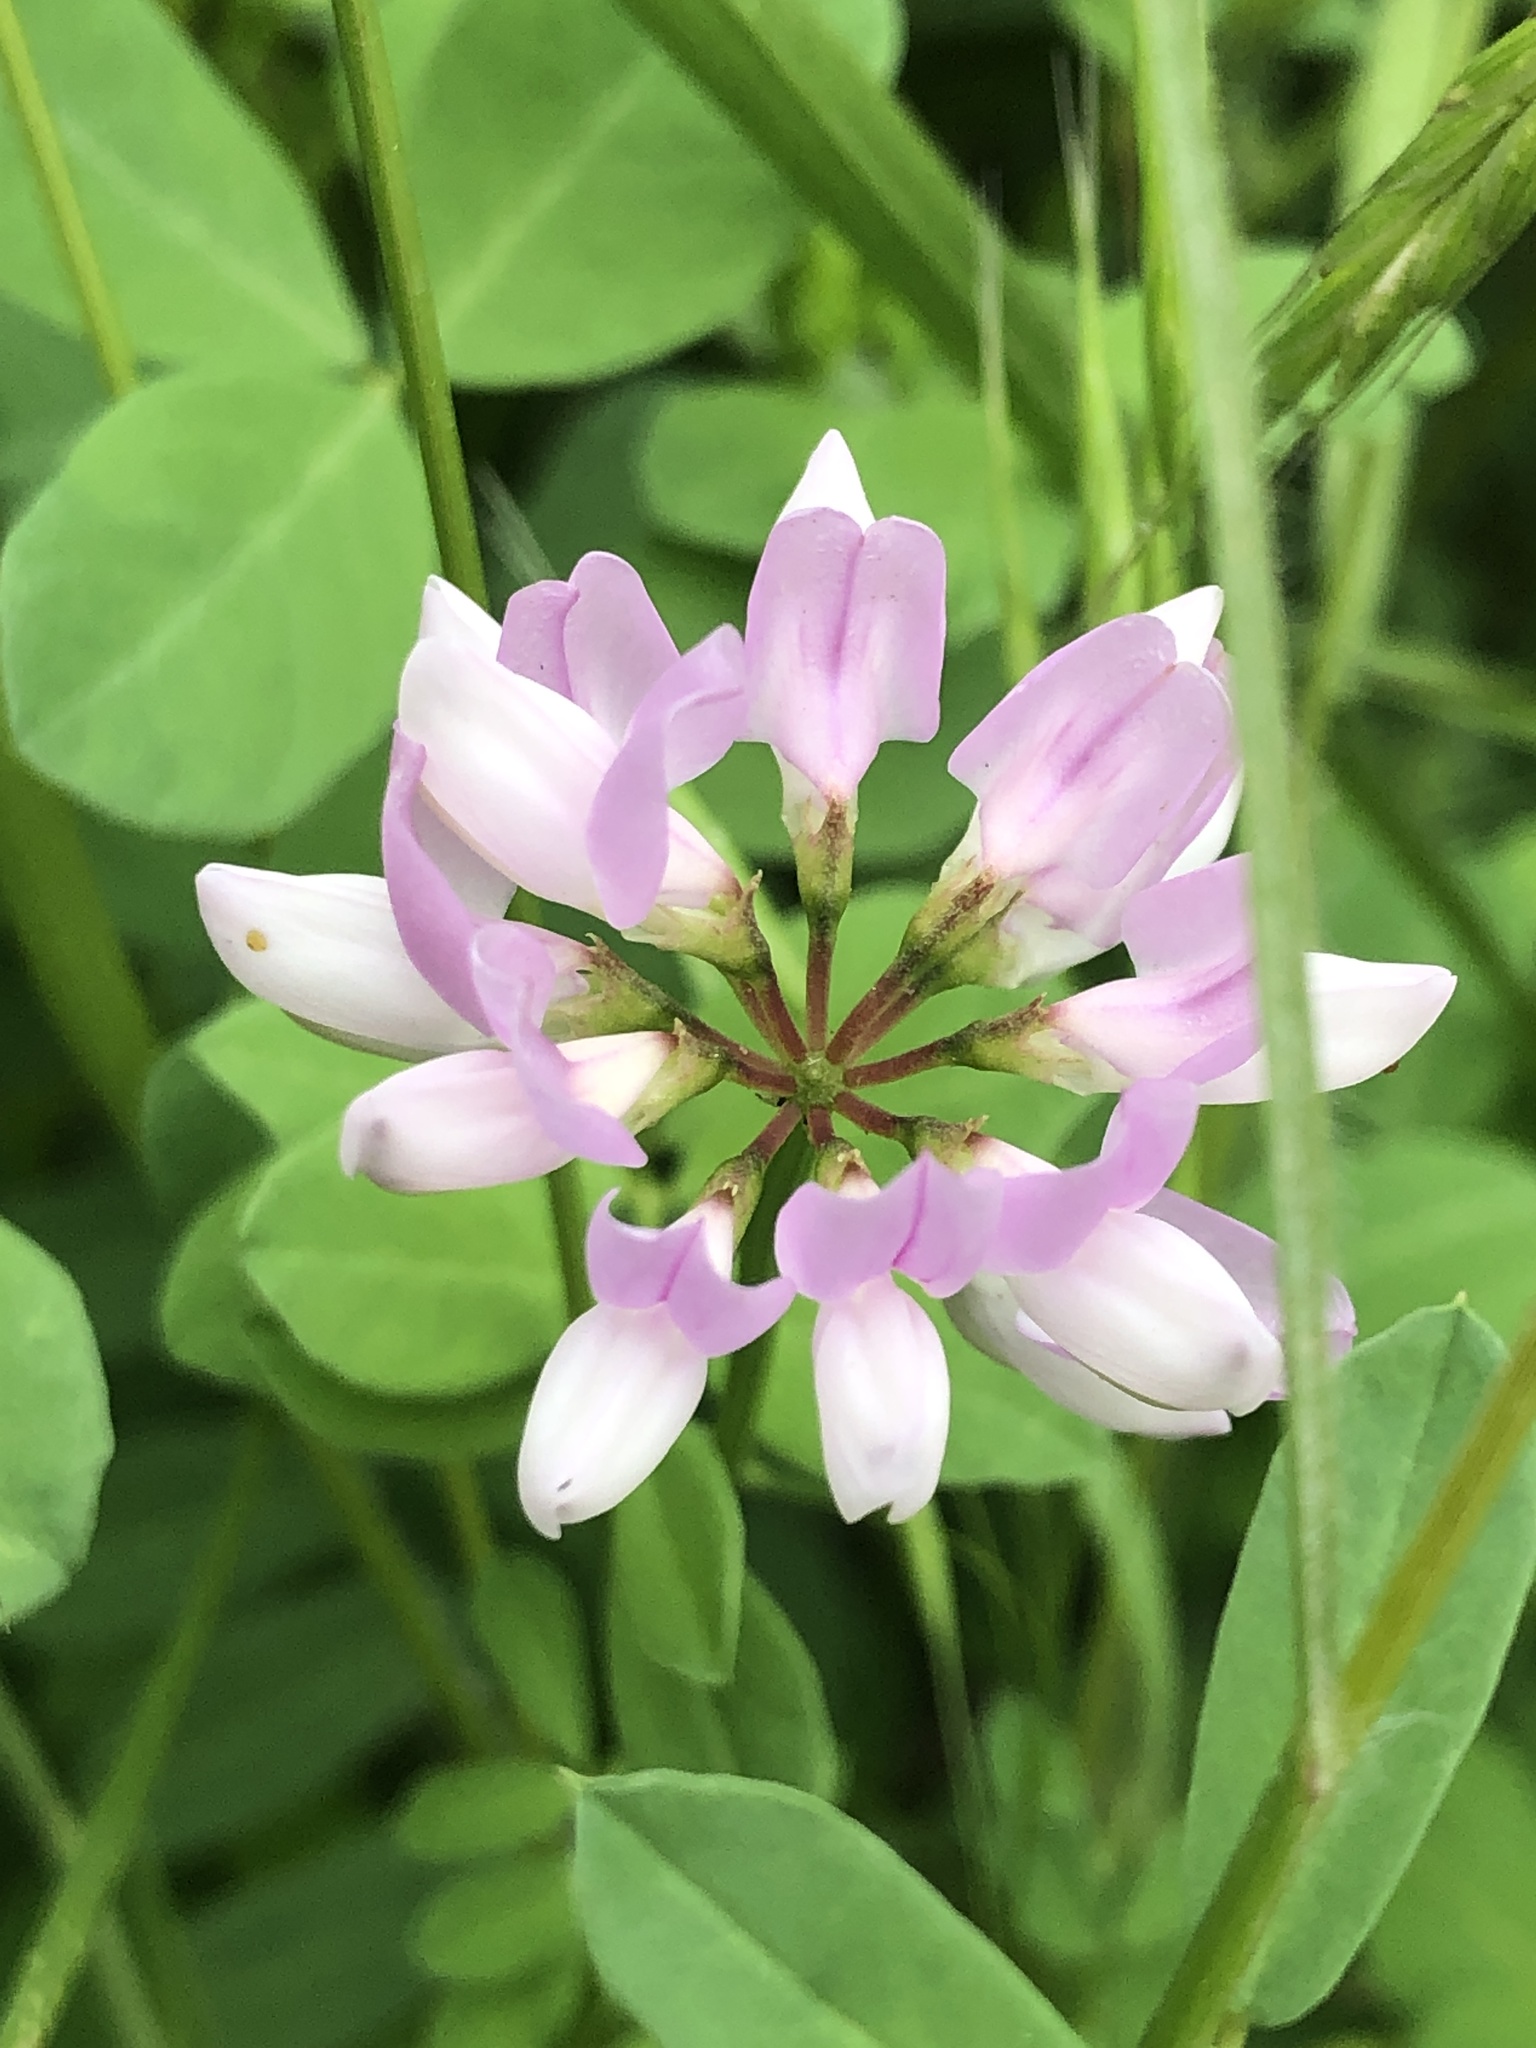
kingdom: Plantae
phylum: Tracheophyta
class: Magnoliopsida
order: Fabales
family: Fabaceae
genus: Coronilla
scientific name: Coronilla varia
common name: Crownvetch
